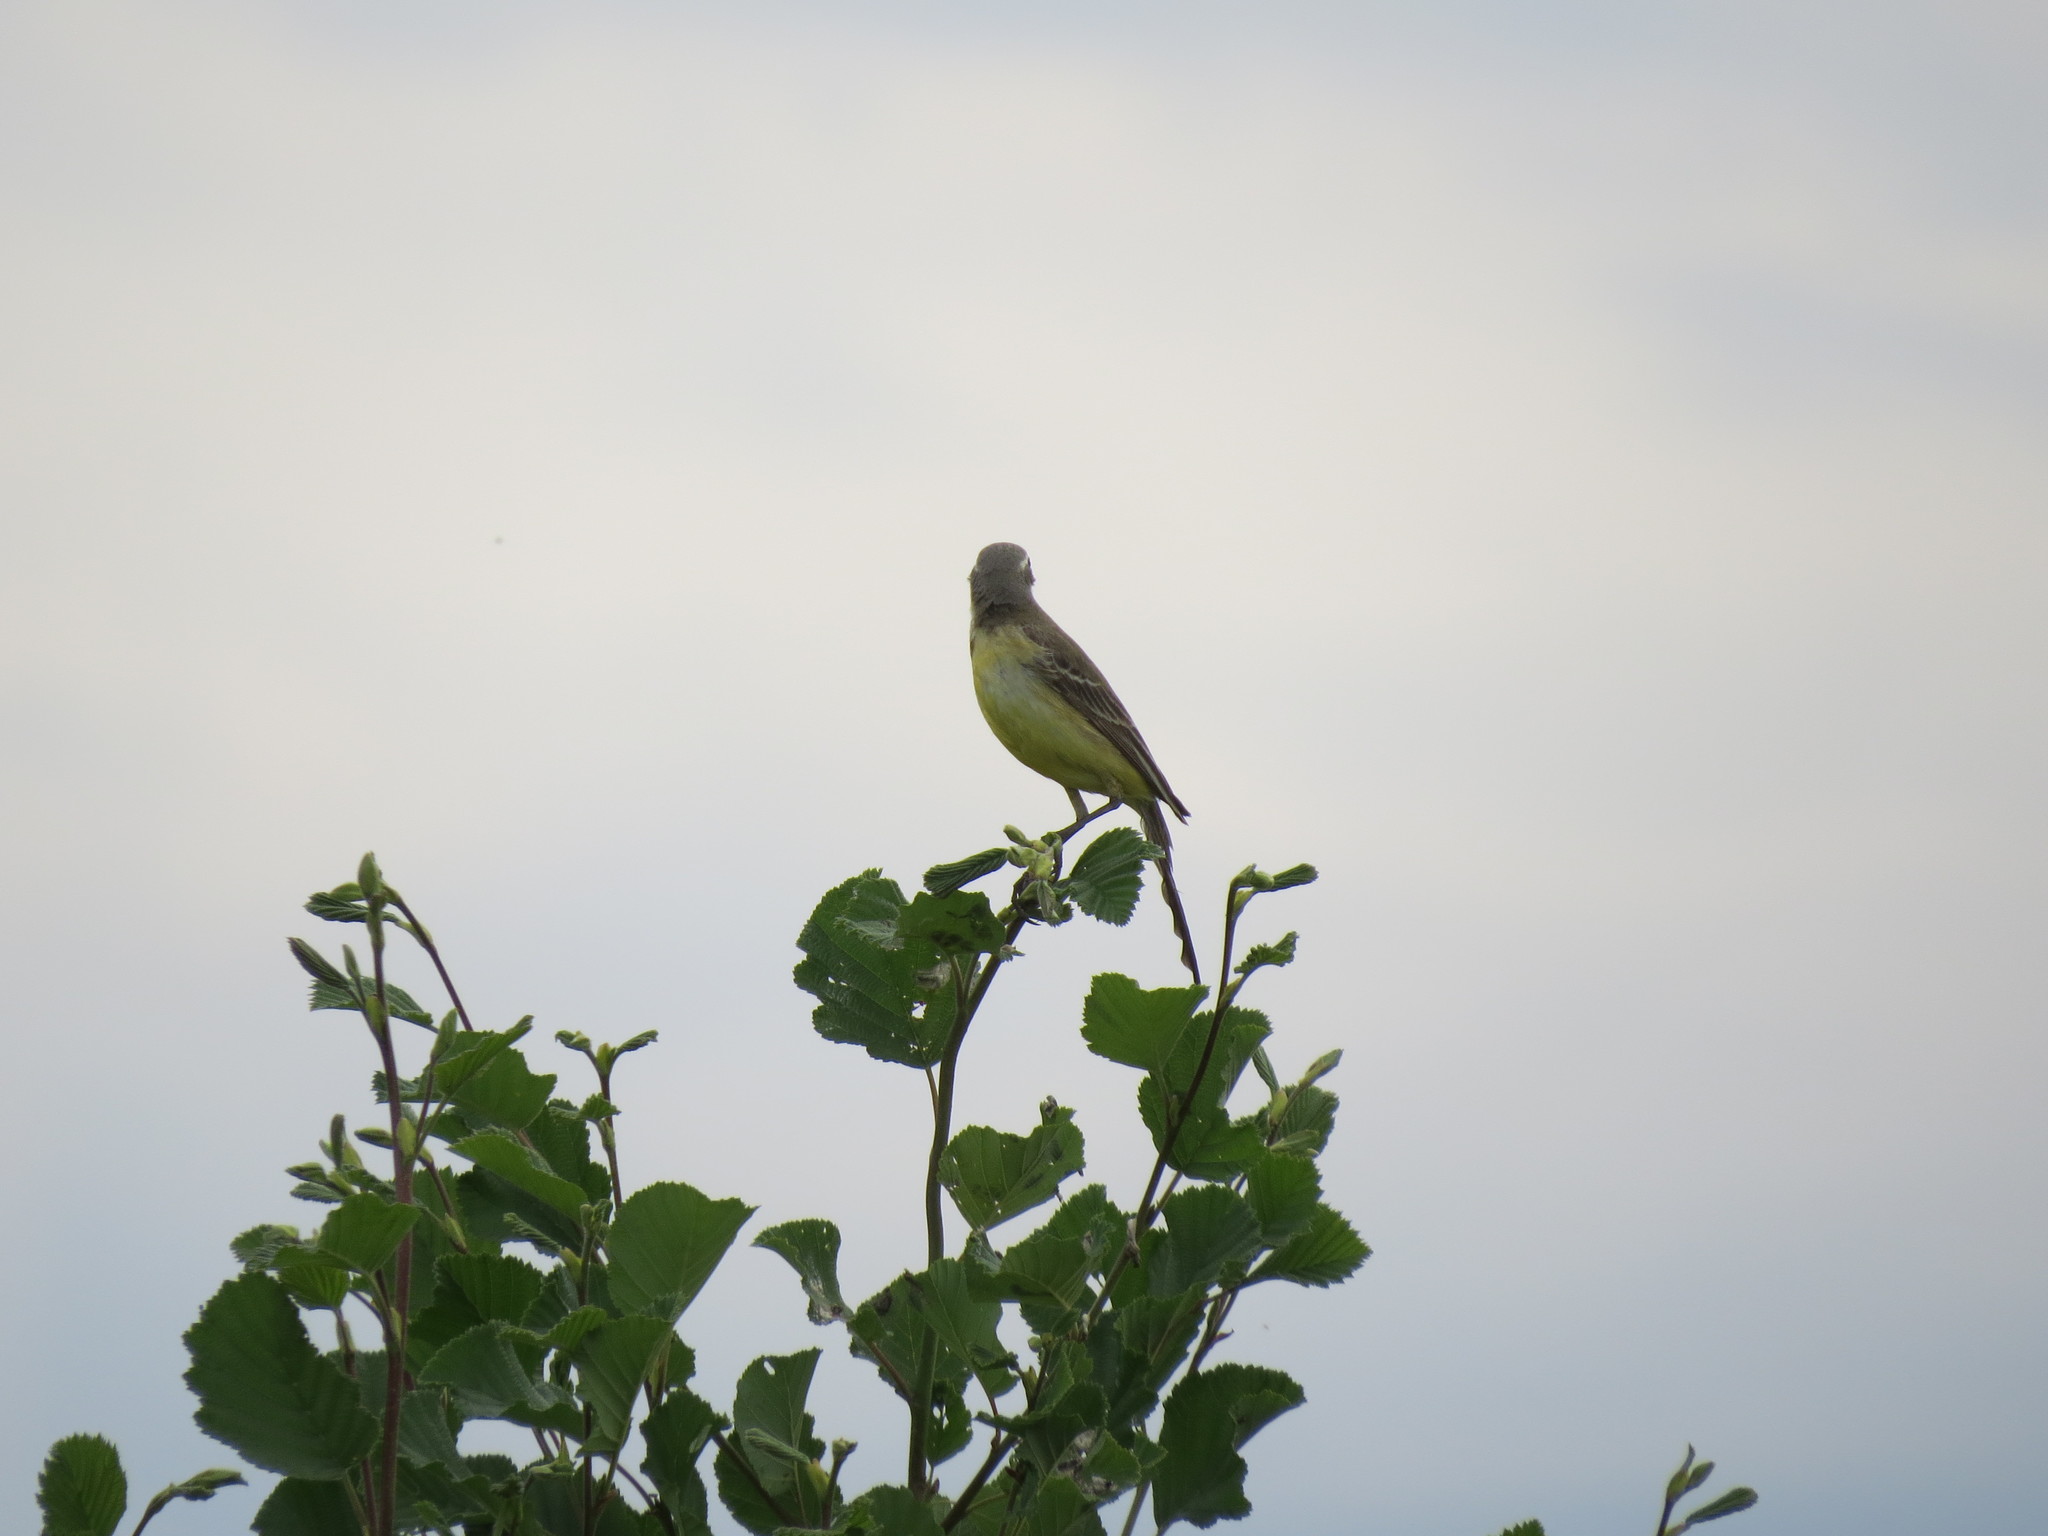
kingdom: Animalia
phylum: Chordata
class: Aves
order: Passeriformes
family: Motacillidae
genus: Motacilla
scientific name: Motacilla flava
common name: Western yellow wagtail
